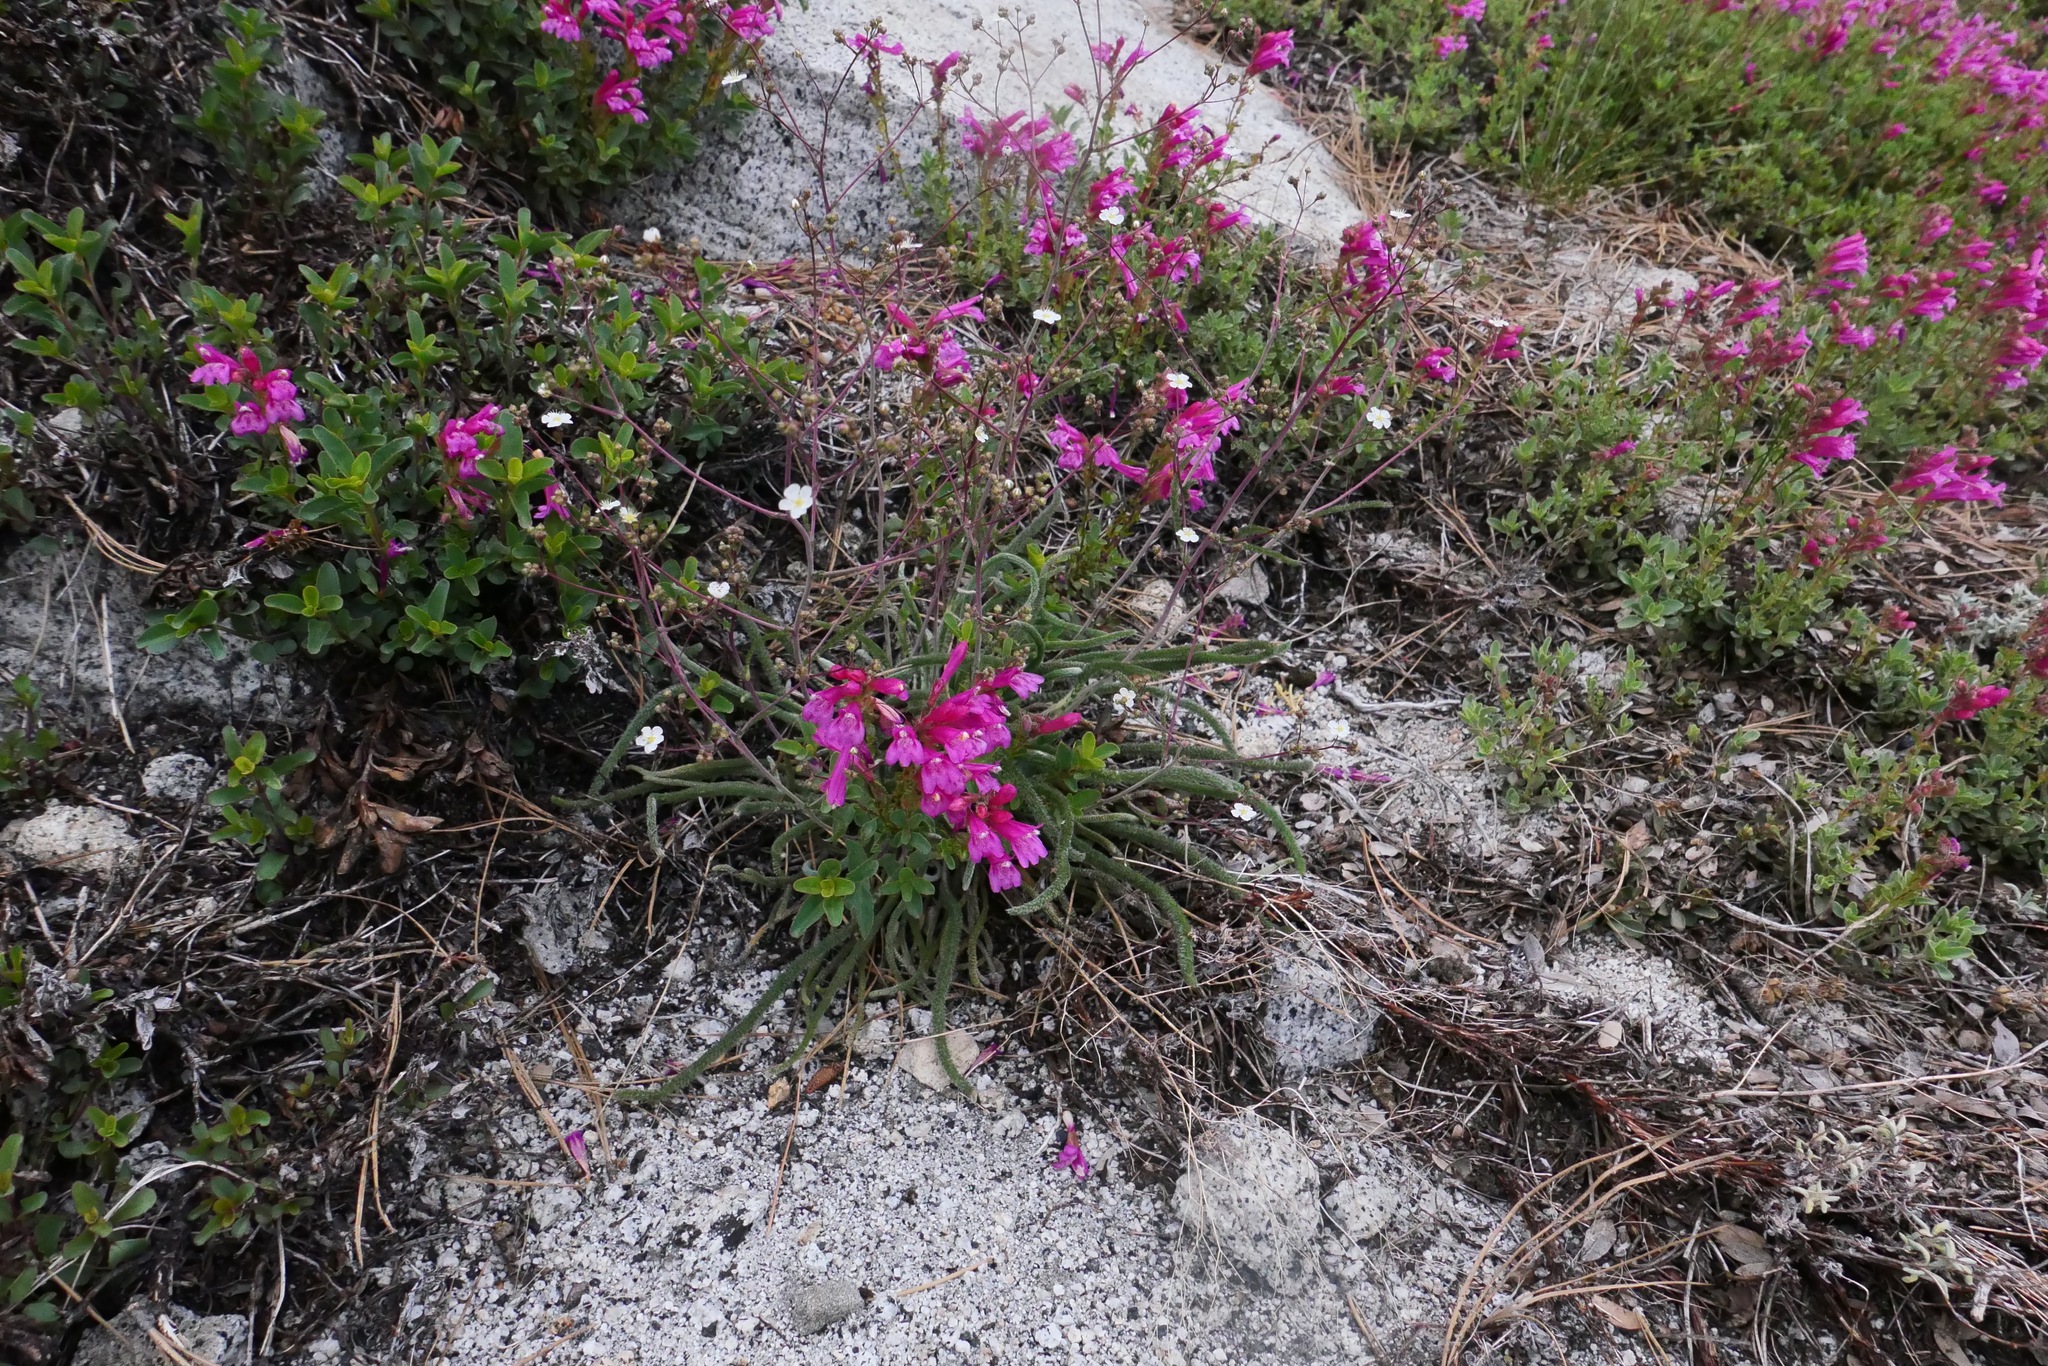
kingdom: Plantae
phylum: Tracheophyta
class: Magnoliopsida
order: Rosales
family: Rosaceae
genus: Potentilla
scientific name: Potentilla santolinoides
